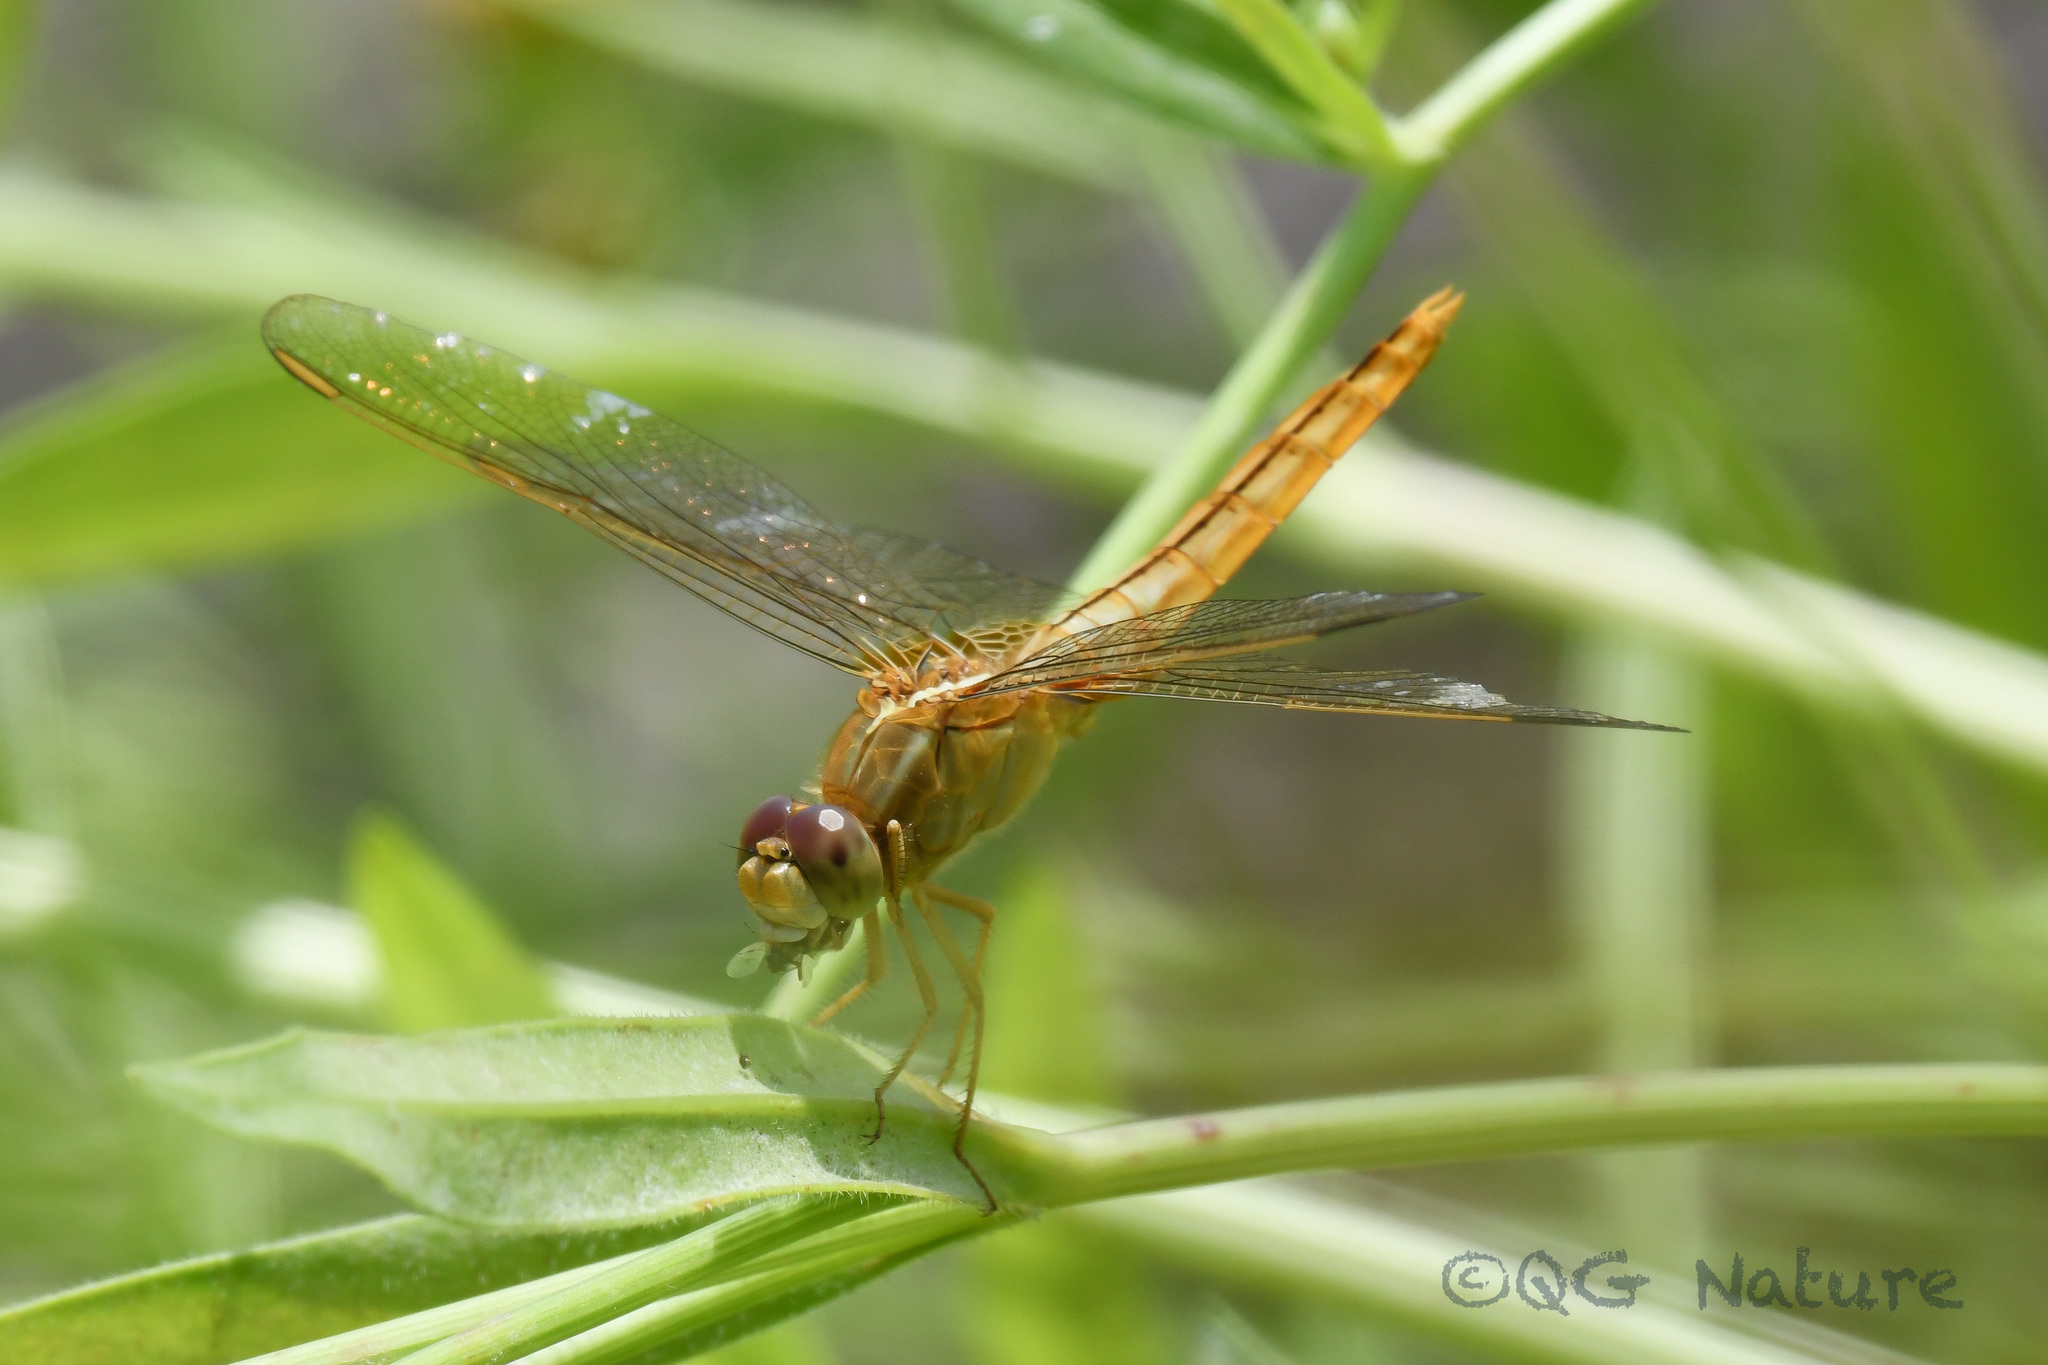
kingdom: Animalia
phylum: Arthropoda
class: Insecta
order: Odonata
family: Libellulidae
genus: Crocothemis
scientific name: Crocothemis servilia
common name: Scarlet skimmer
